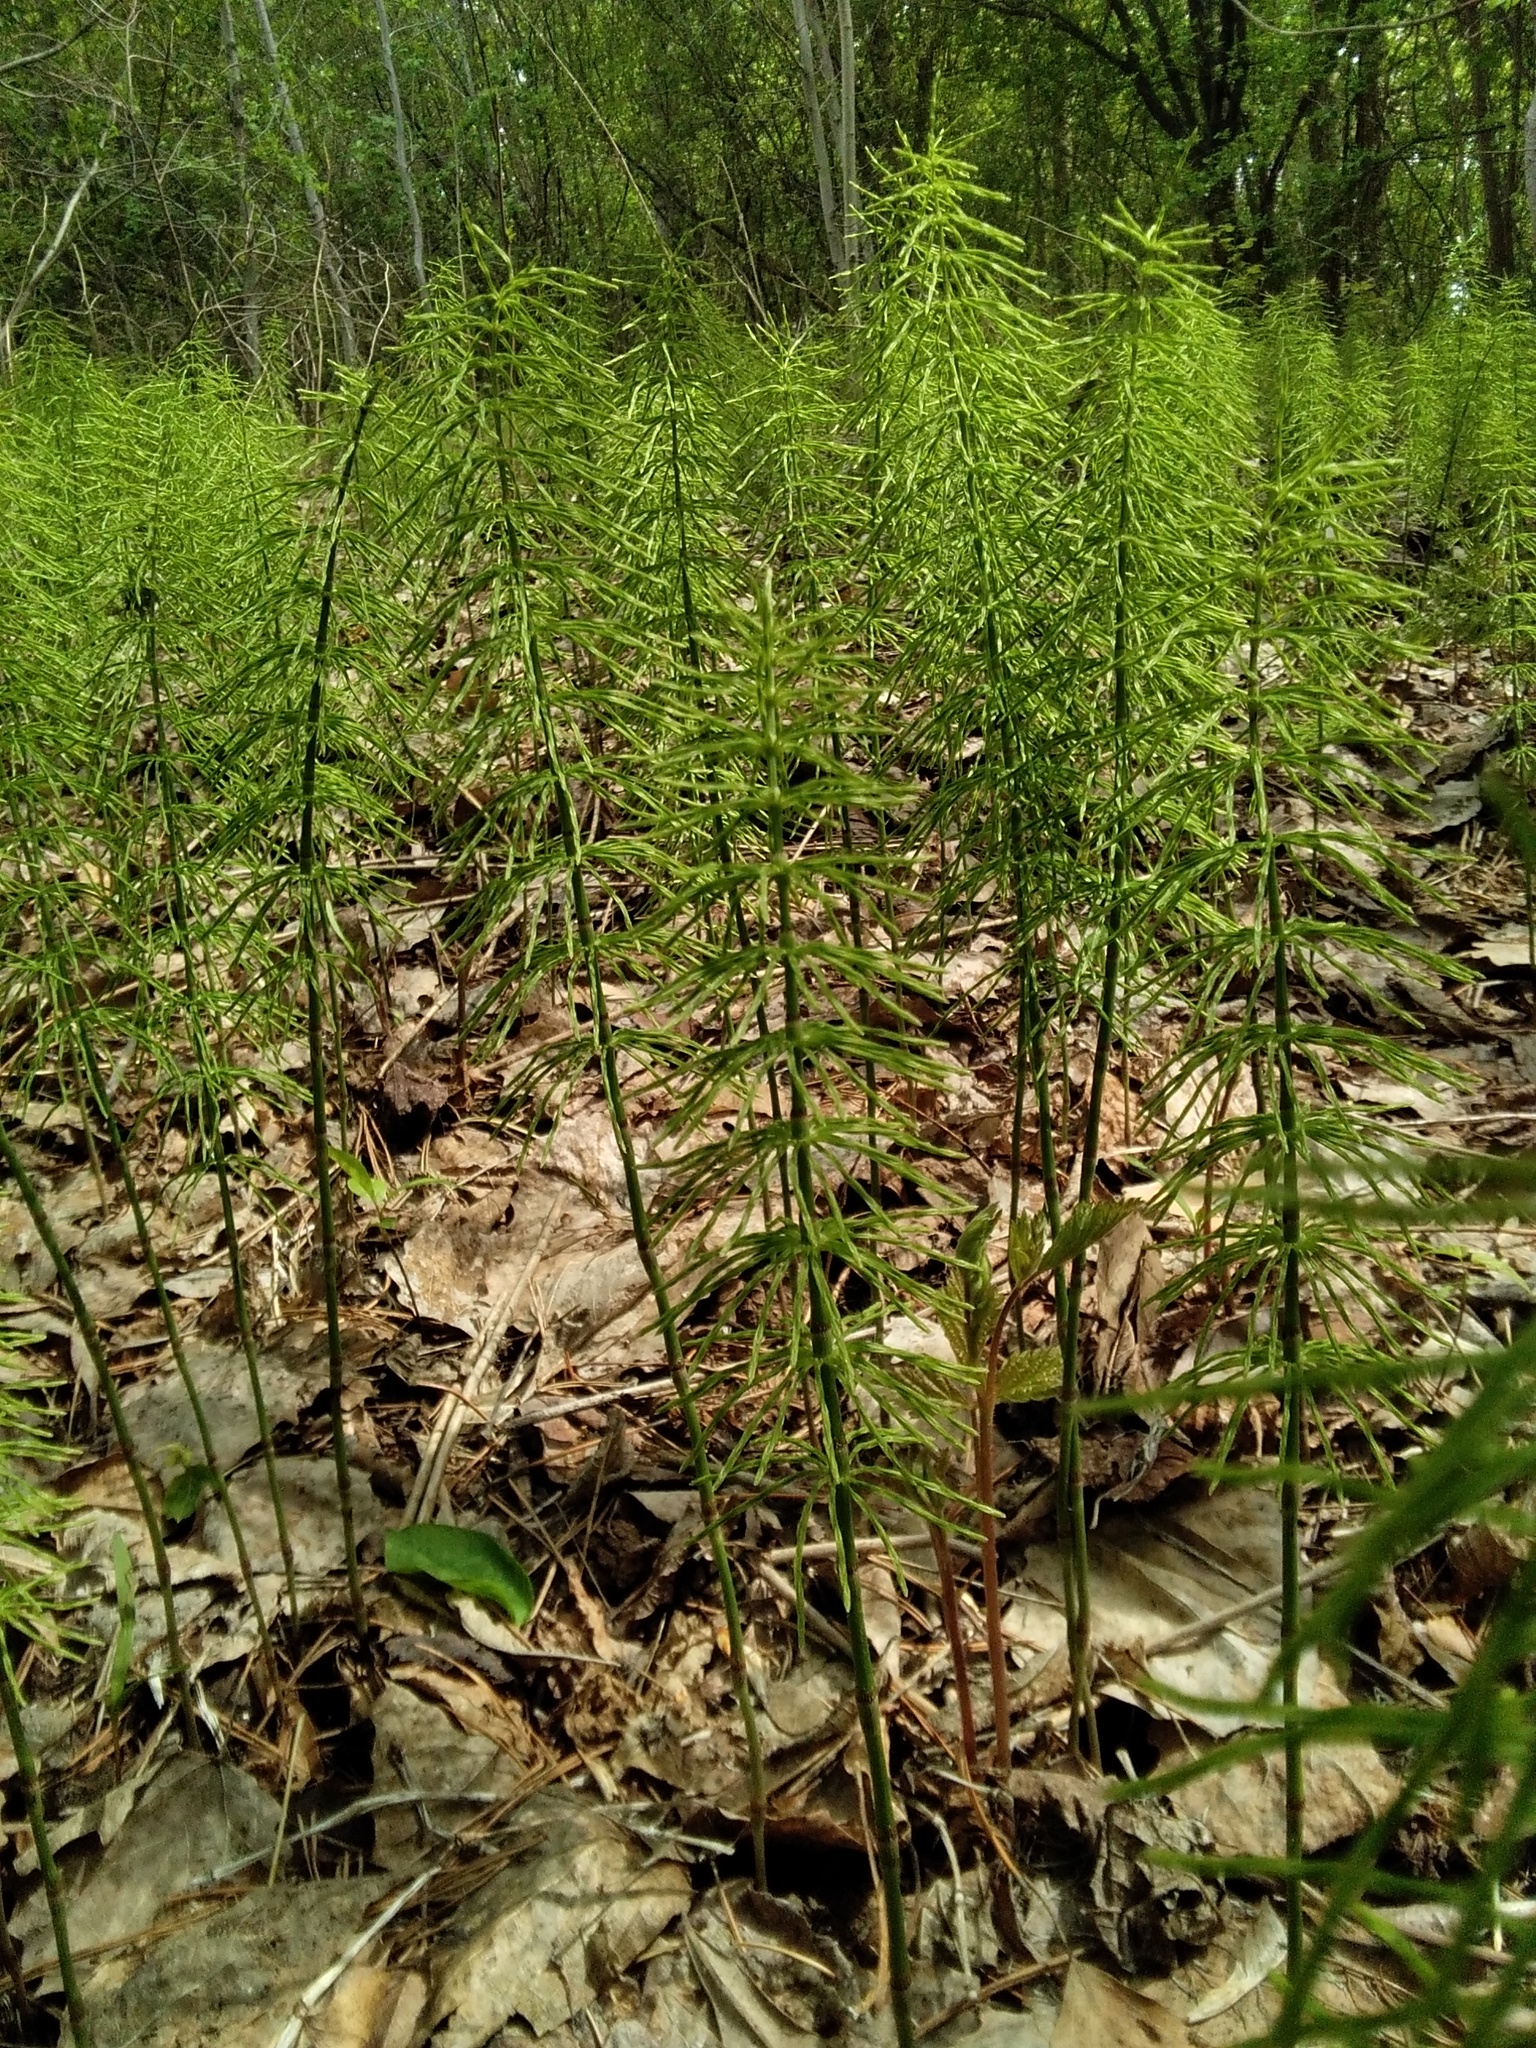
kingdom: Plantae
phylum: Tracheophyta
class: Polypodiopsida
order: Equisetales
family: Equisetaceae
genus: Equisetum
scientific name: Equisetum pratense
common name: Meadow horsetail
